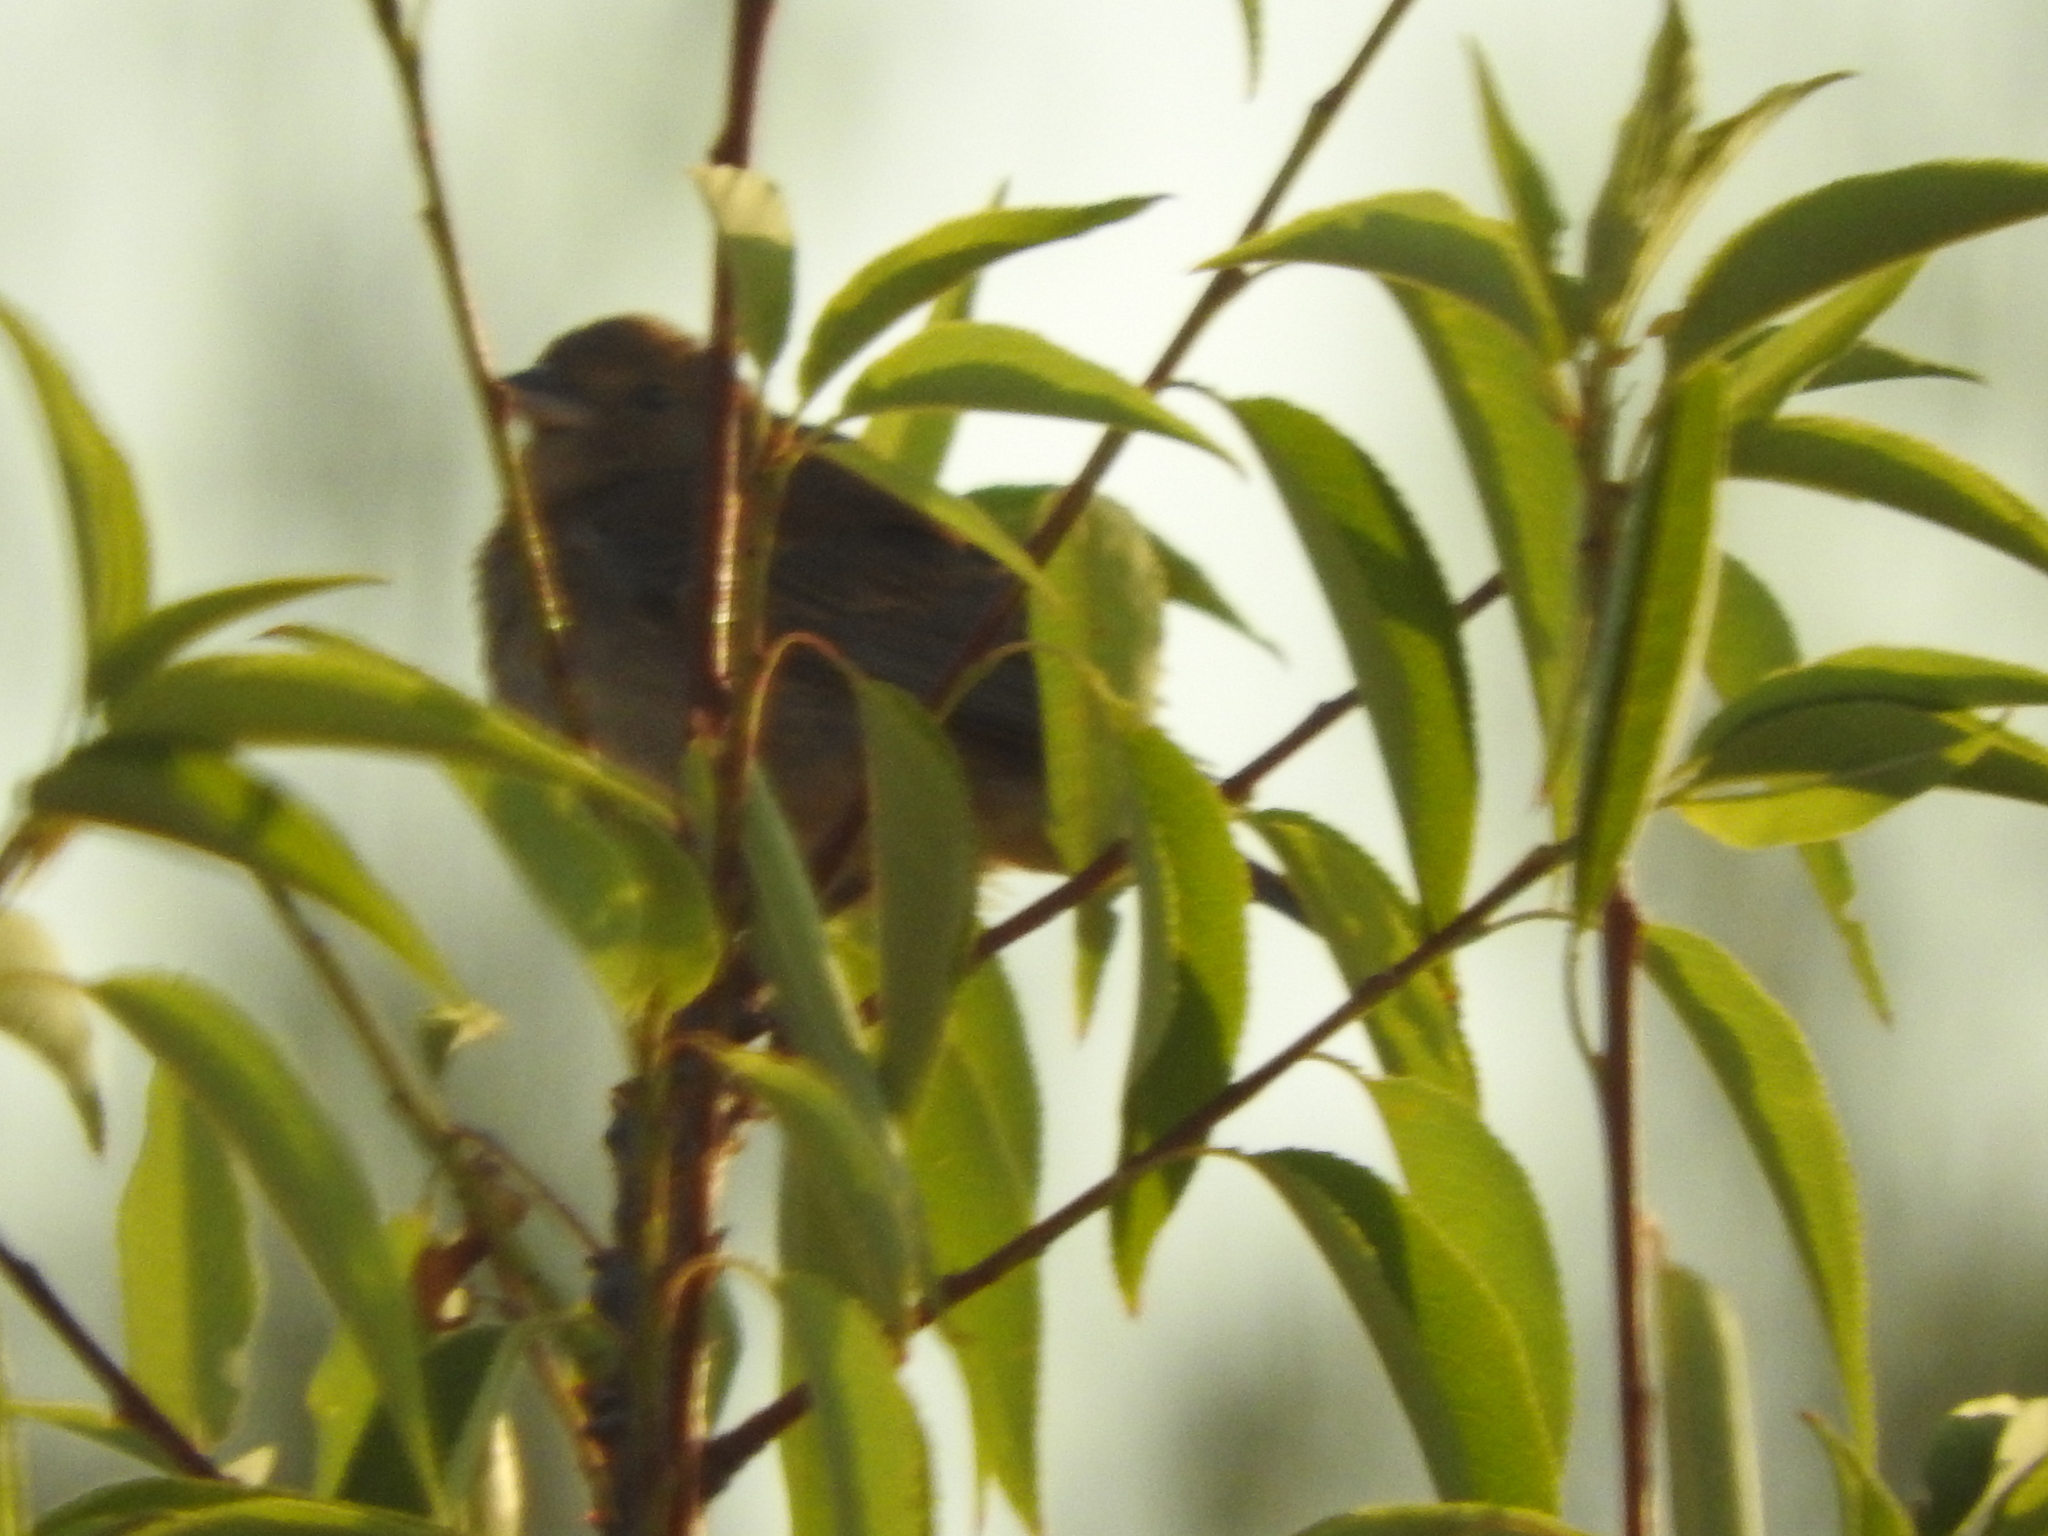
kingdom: Animalia
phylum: Chordata
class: Aves
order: Passeriformes
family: Passerellidae
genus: Melozone
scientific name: Melozone fusca
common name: Canyon towhee
